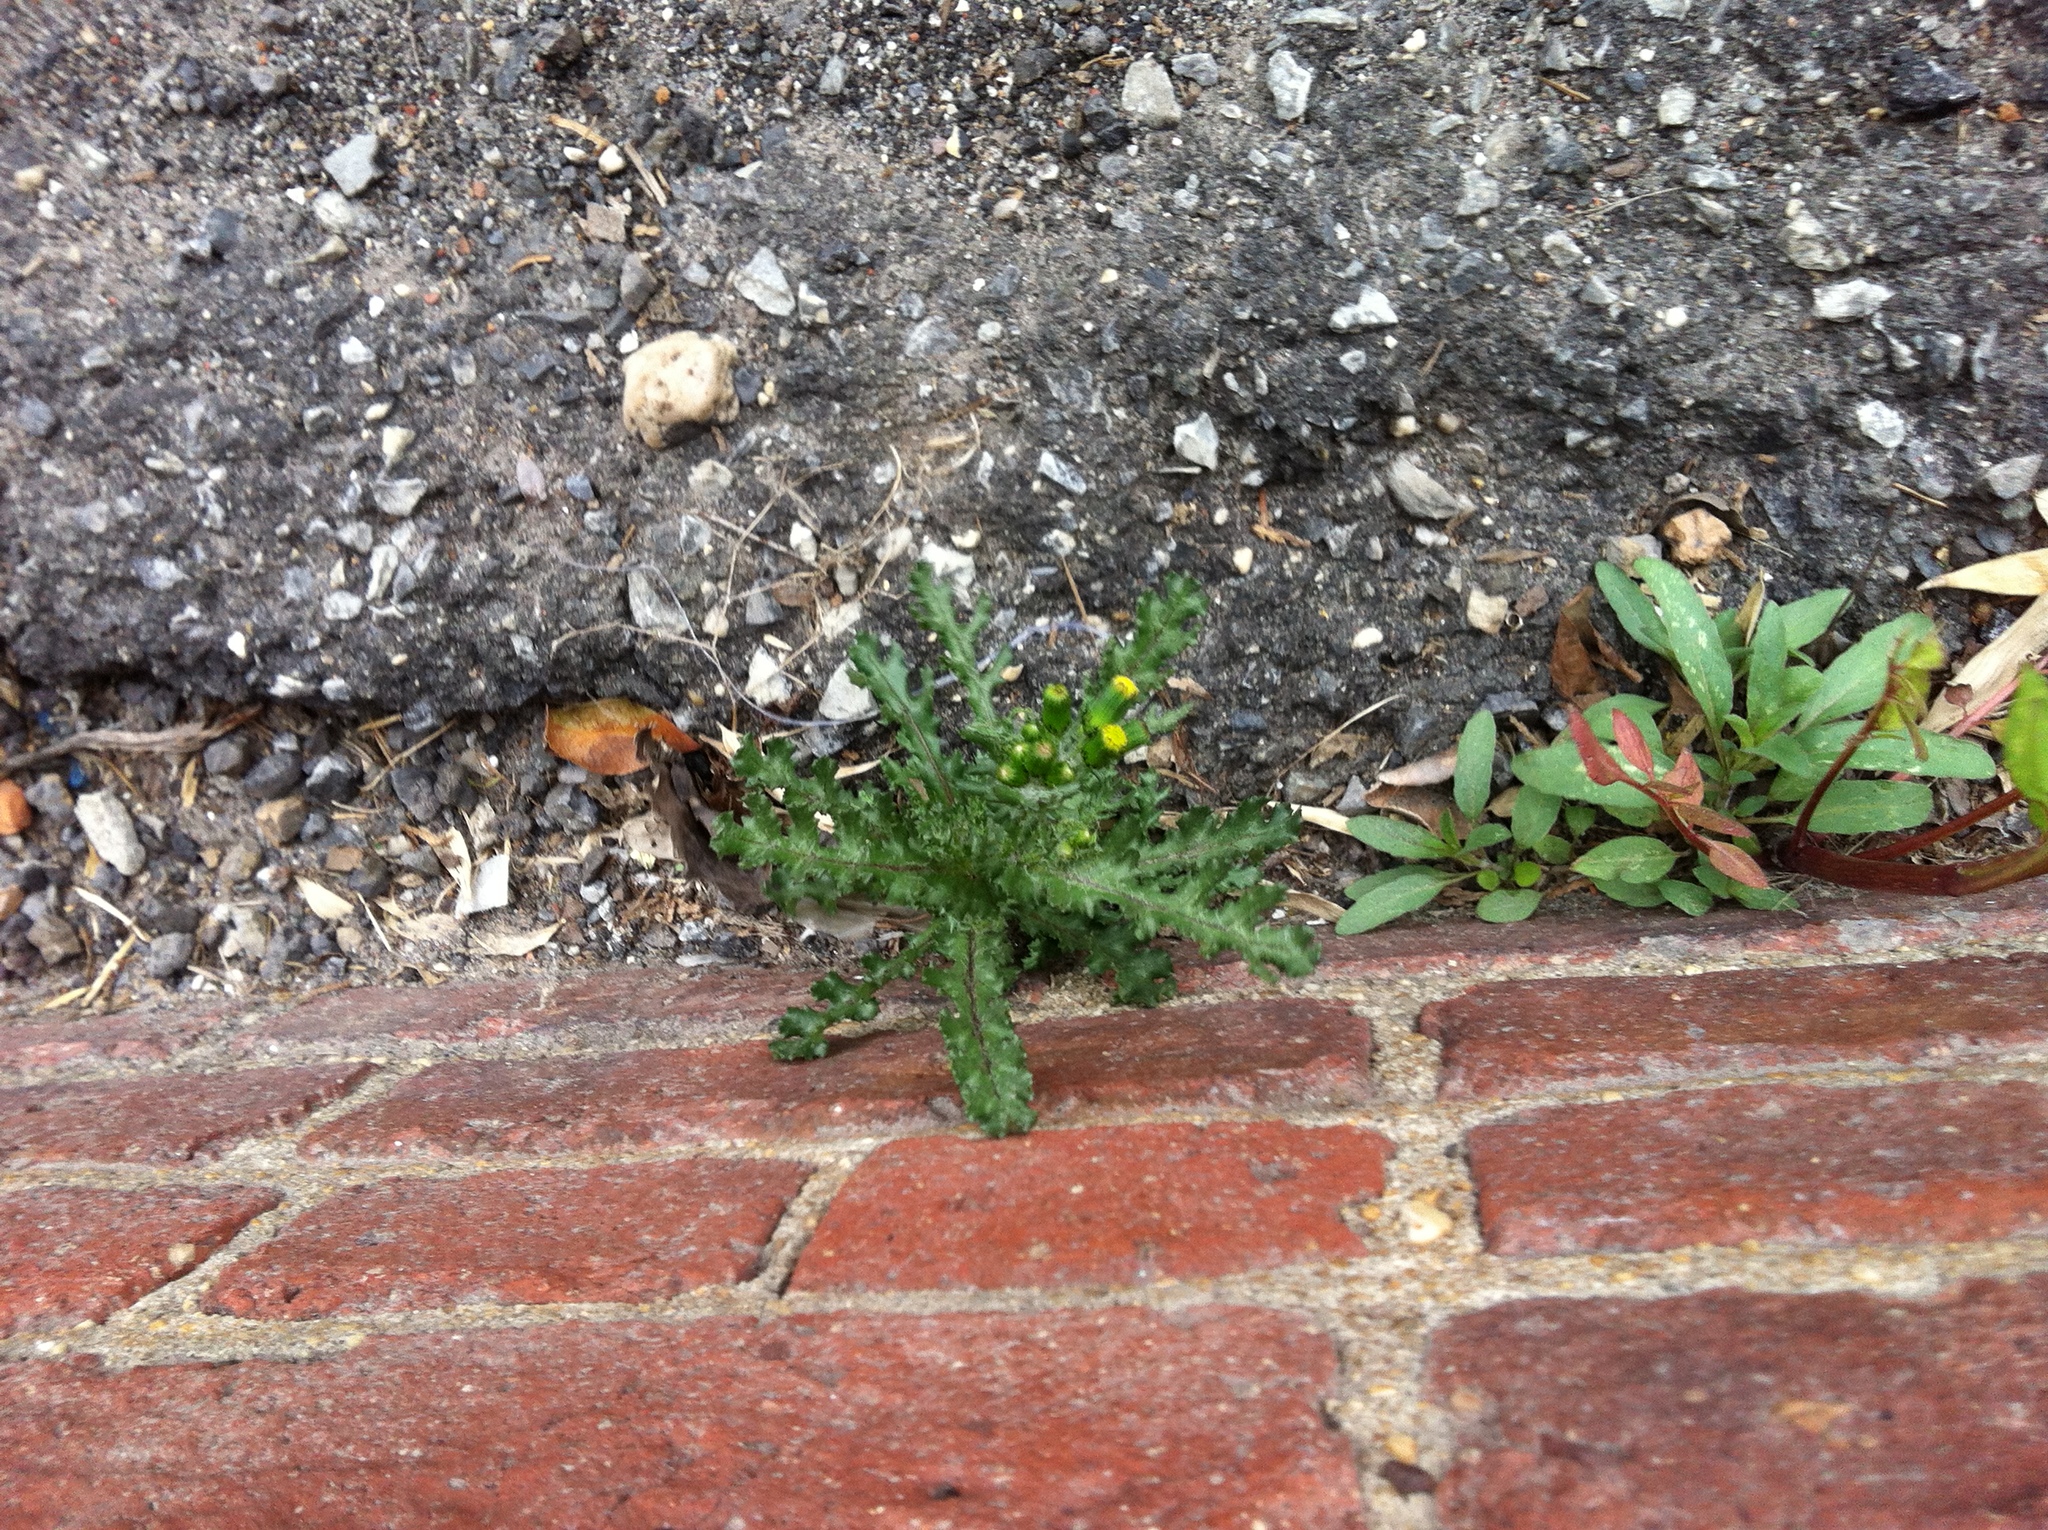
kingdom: Plantae
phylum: Tracheophyta
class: Magnoliopsida
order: Asterales
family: Asteraceae
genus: Senecio
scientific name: Senecio vulgaris
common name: Old-man-in-the-spring
